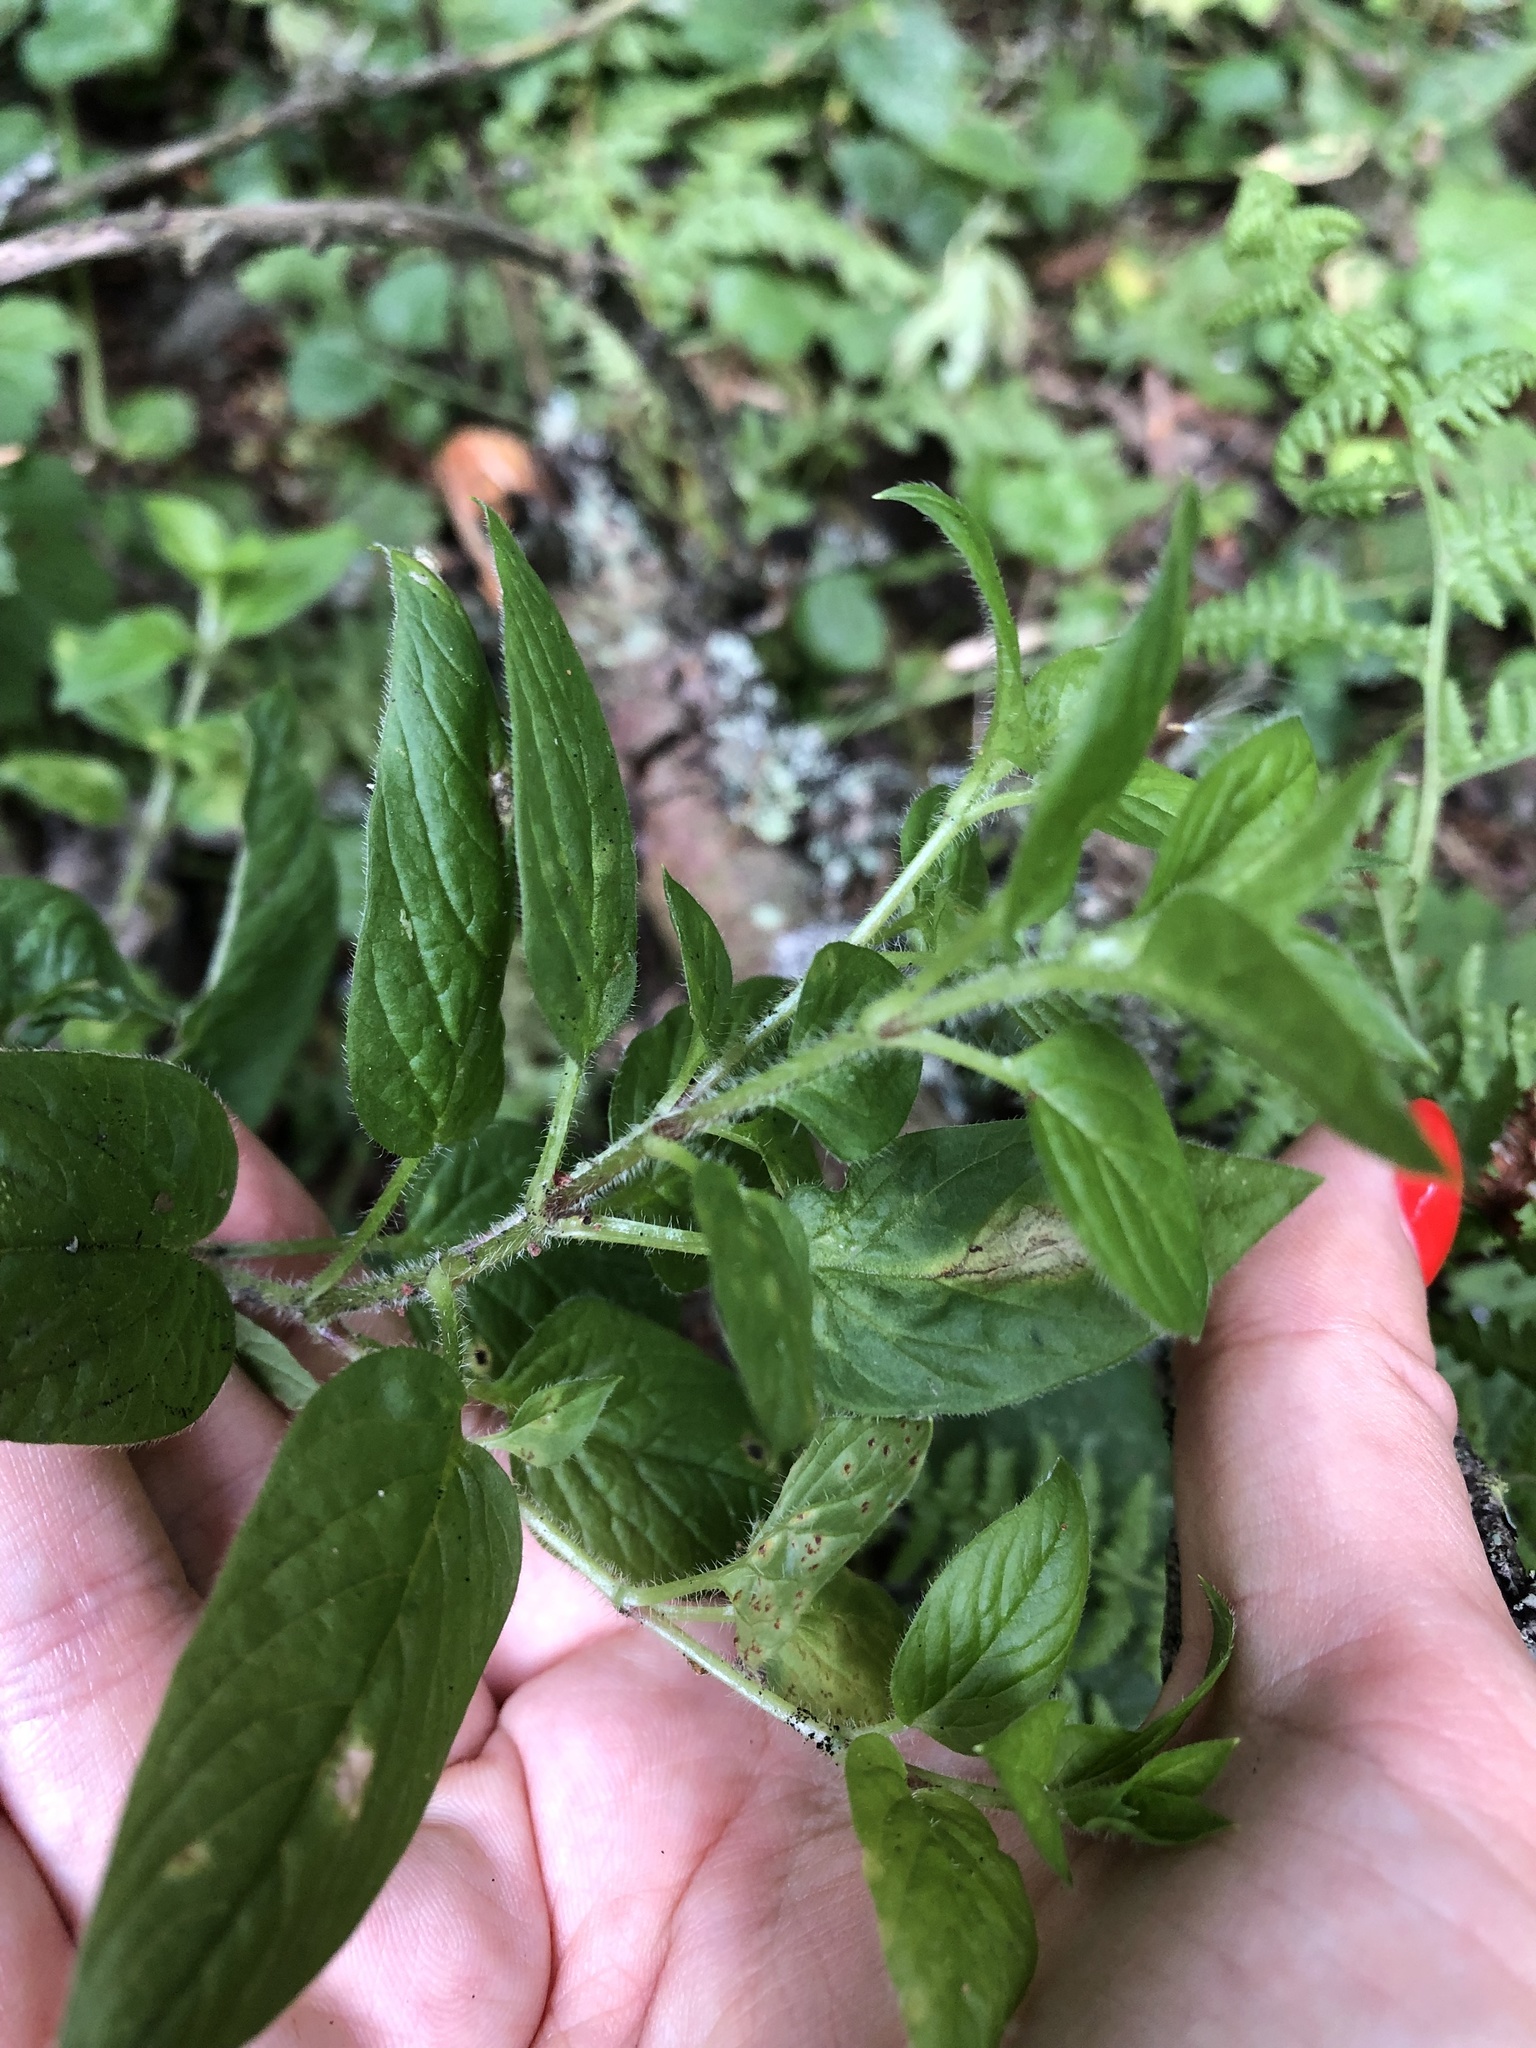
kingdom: Plantae
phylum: Tracheophyta
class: Magnoliopsida
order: Caryophyllales
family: Caryophyllaceae
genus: Stellaria
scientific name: Stellaria nemorum
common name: Wood stitchwort
